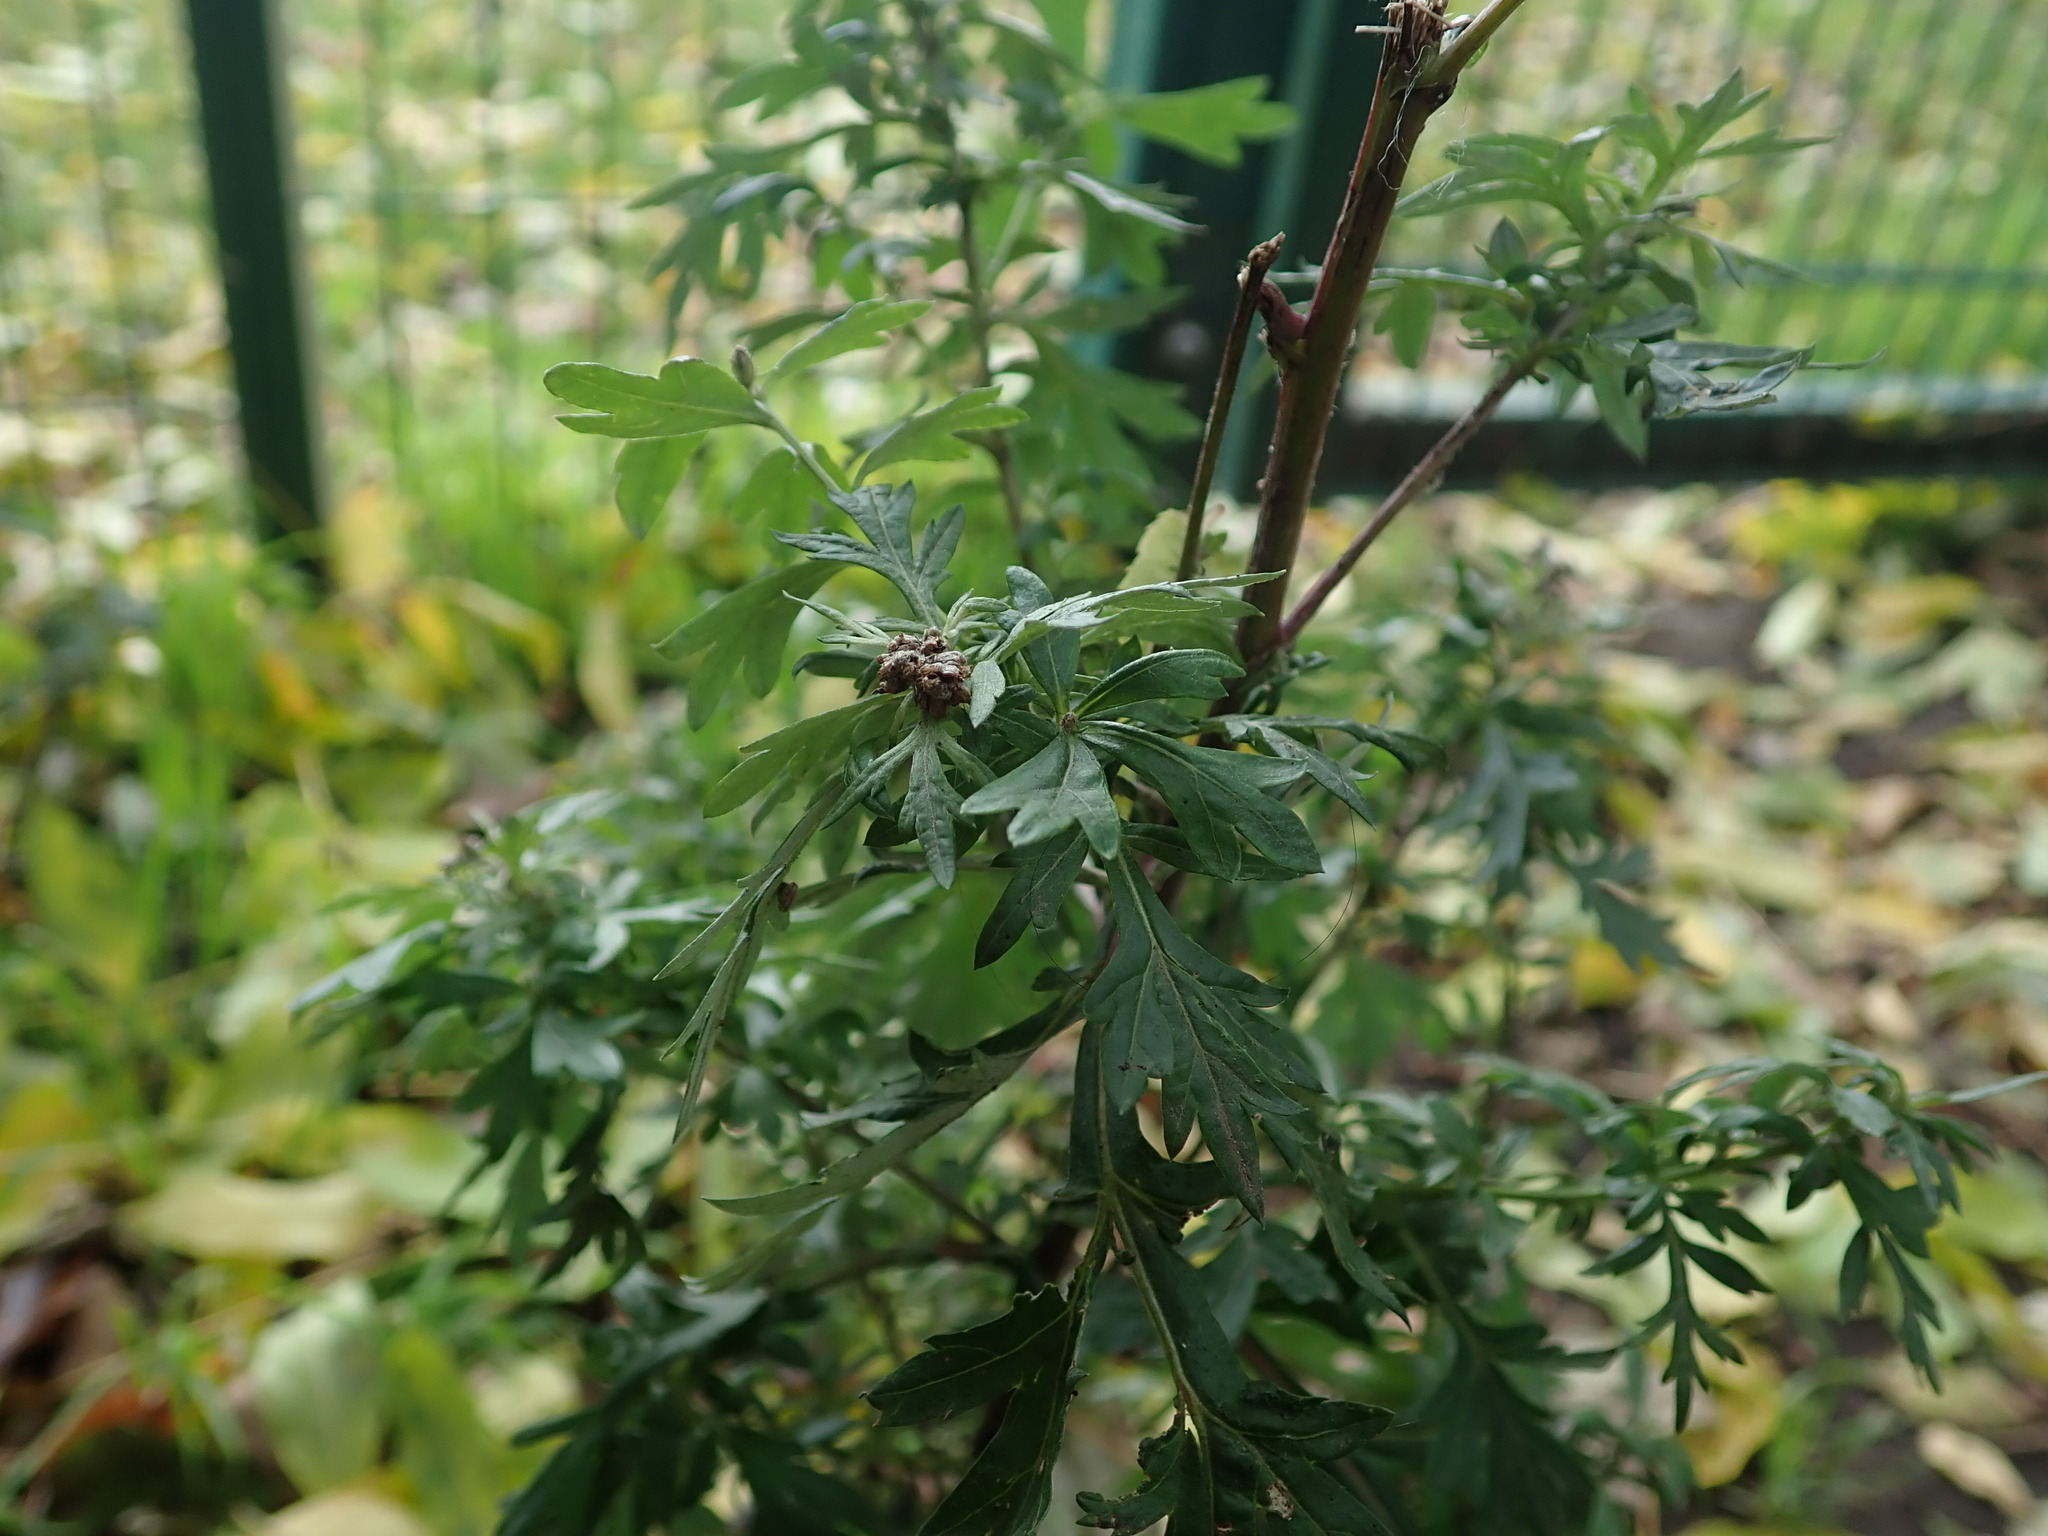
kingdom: Plantae
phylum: Tracheophyta
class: Magnoliopsida
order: Asterales
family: Asteraceae
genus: Artemisia
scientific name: Artemisia vulgaris
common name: Mugwort
